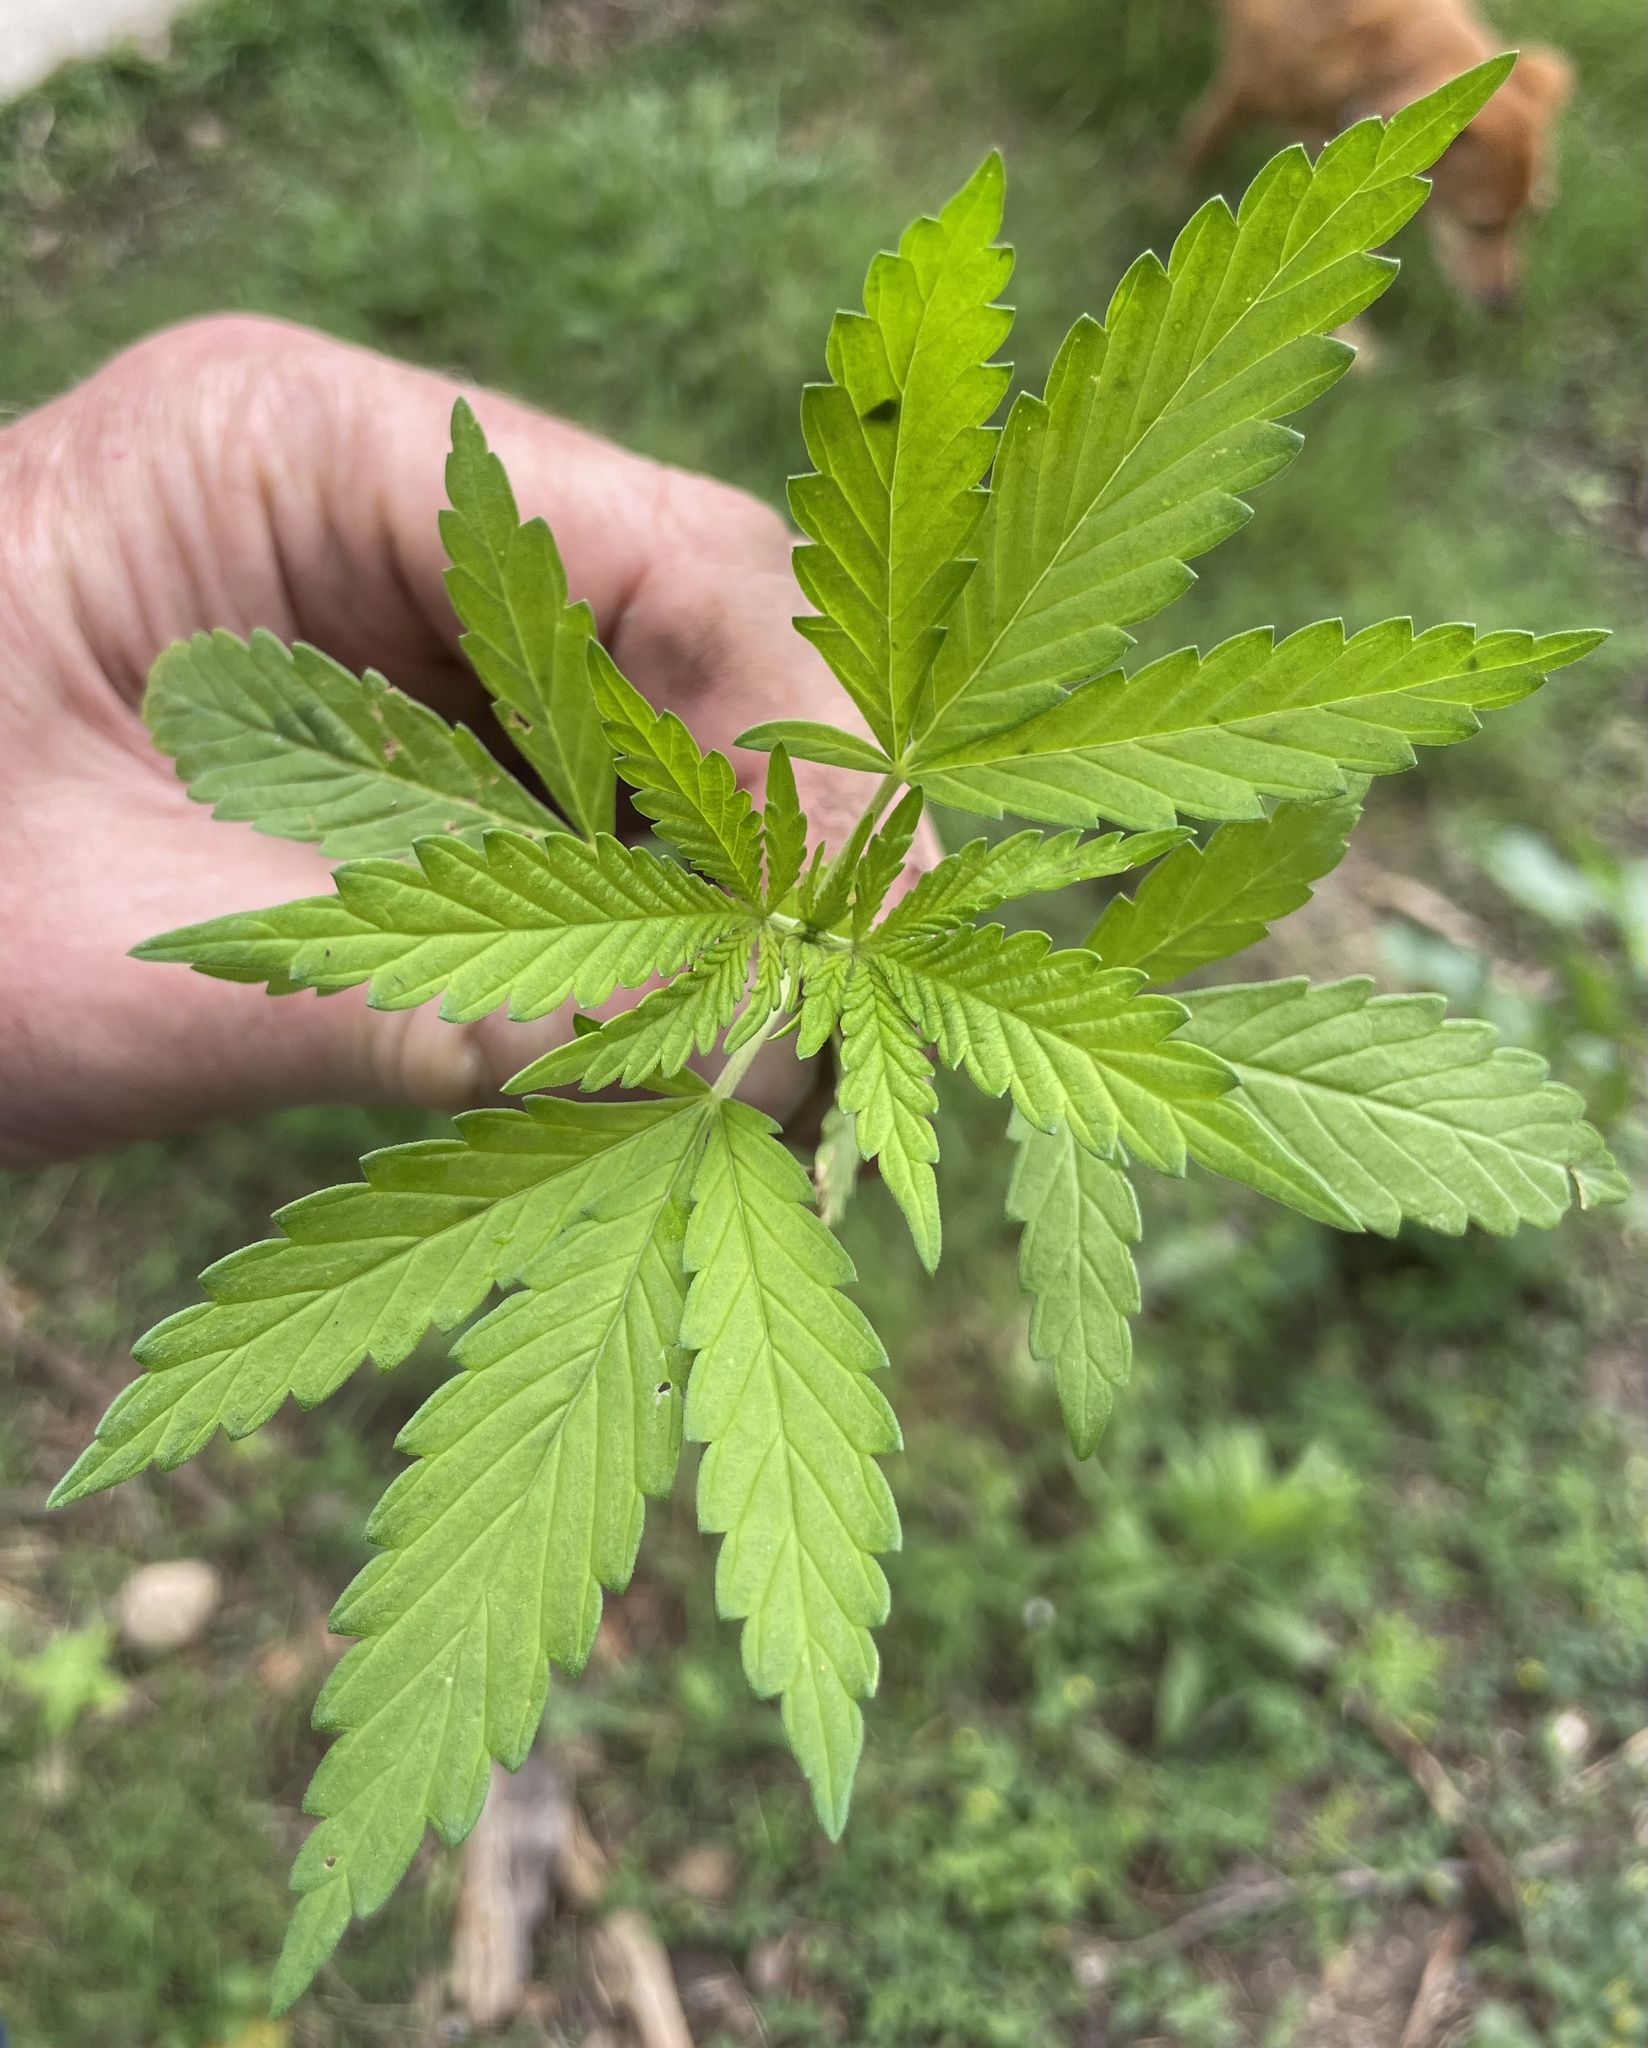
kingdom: Plantae
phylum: Tracheophyta
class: Magnoliopsida
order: Rosales
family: Cannabaceae
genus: Cannabis
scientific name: Cannabis sativa
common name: Hemp
